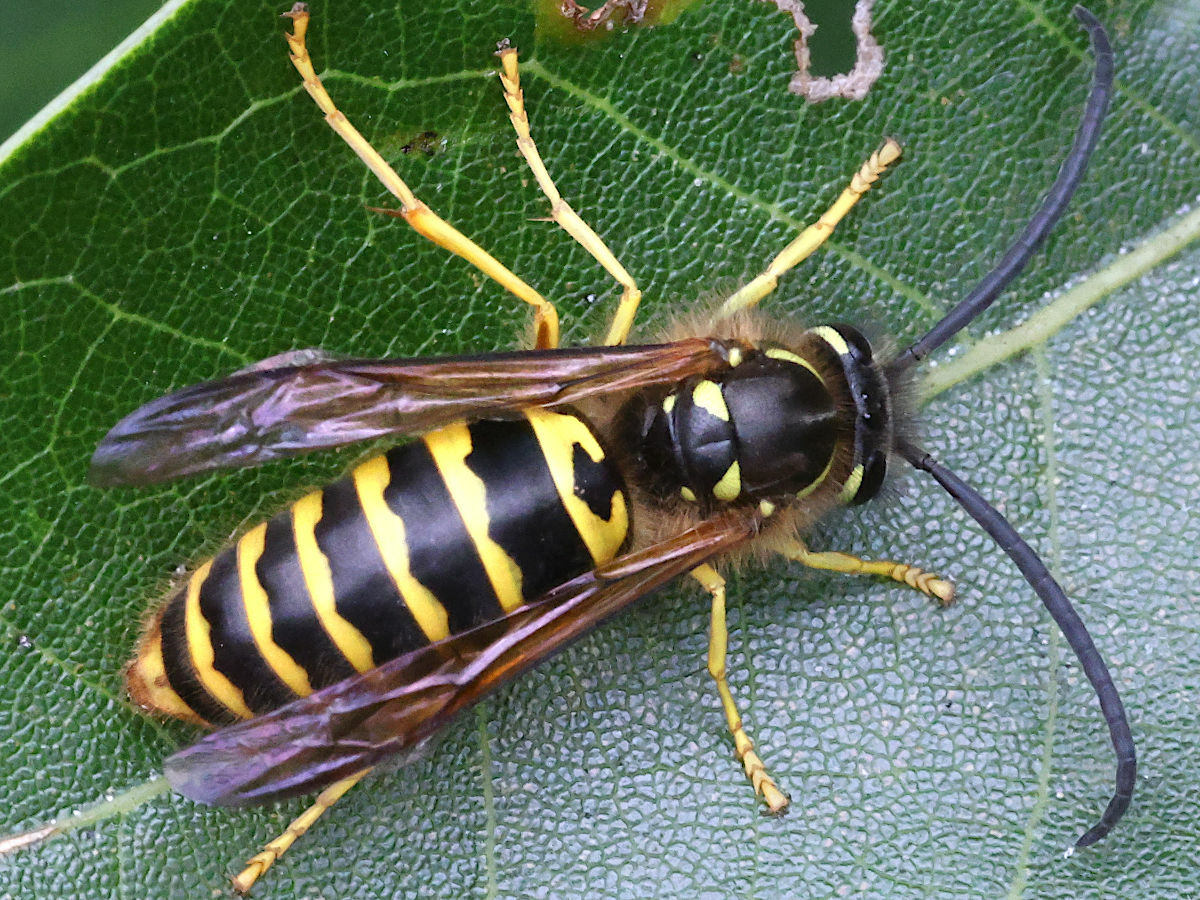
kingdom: Animalia
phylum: Arthropoda
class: Insecta
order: Hymenoptera
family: Vespidae
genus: Vespula
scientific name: Vespula maculifrons
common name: Eastern yellowjacket
